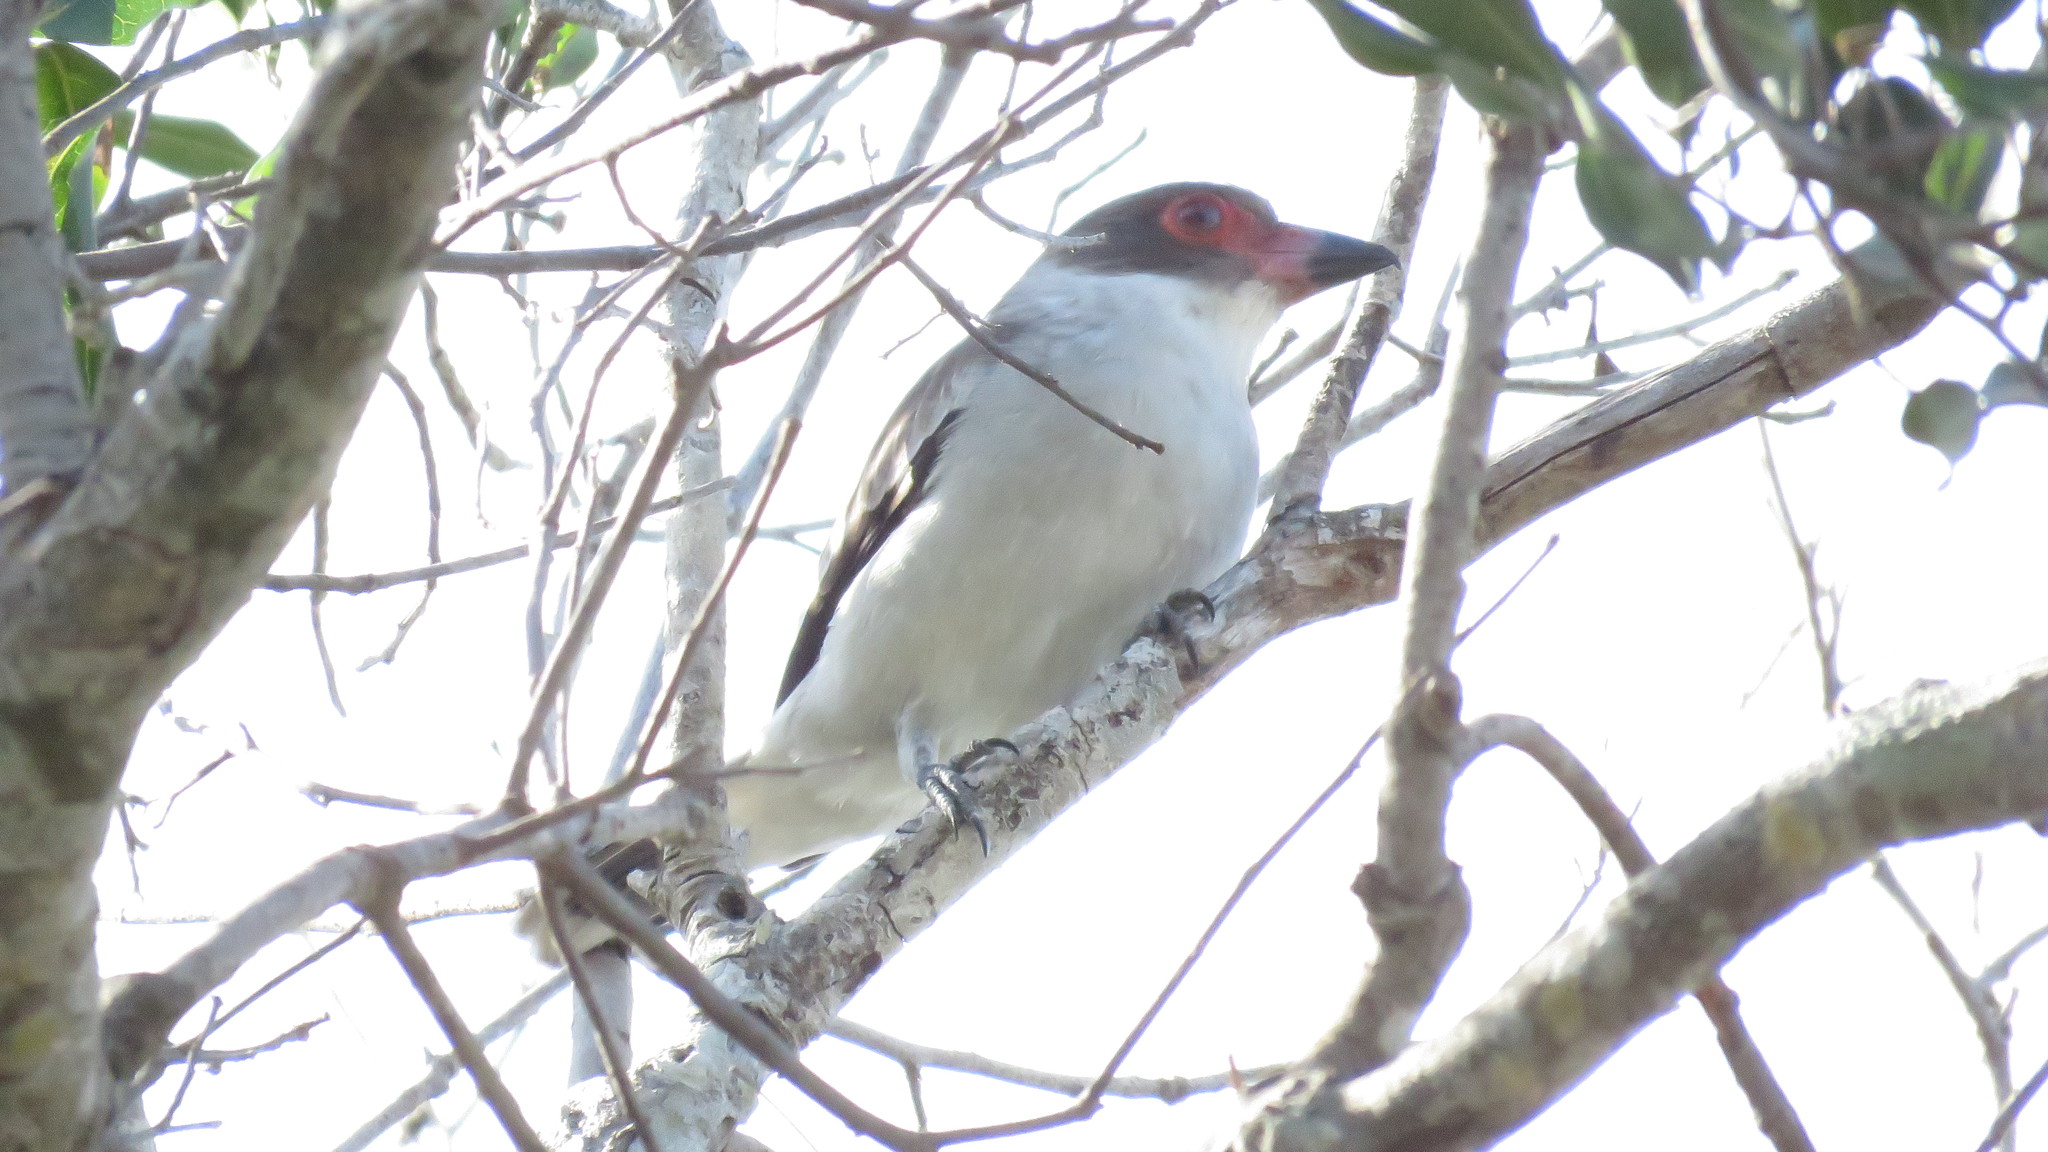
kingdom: Animalia
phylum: Chordata
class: Aves
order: Passeriformes
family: Cotingidae
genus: Tityra
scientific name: Tityra semifasciata
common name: Masked tityra
